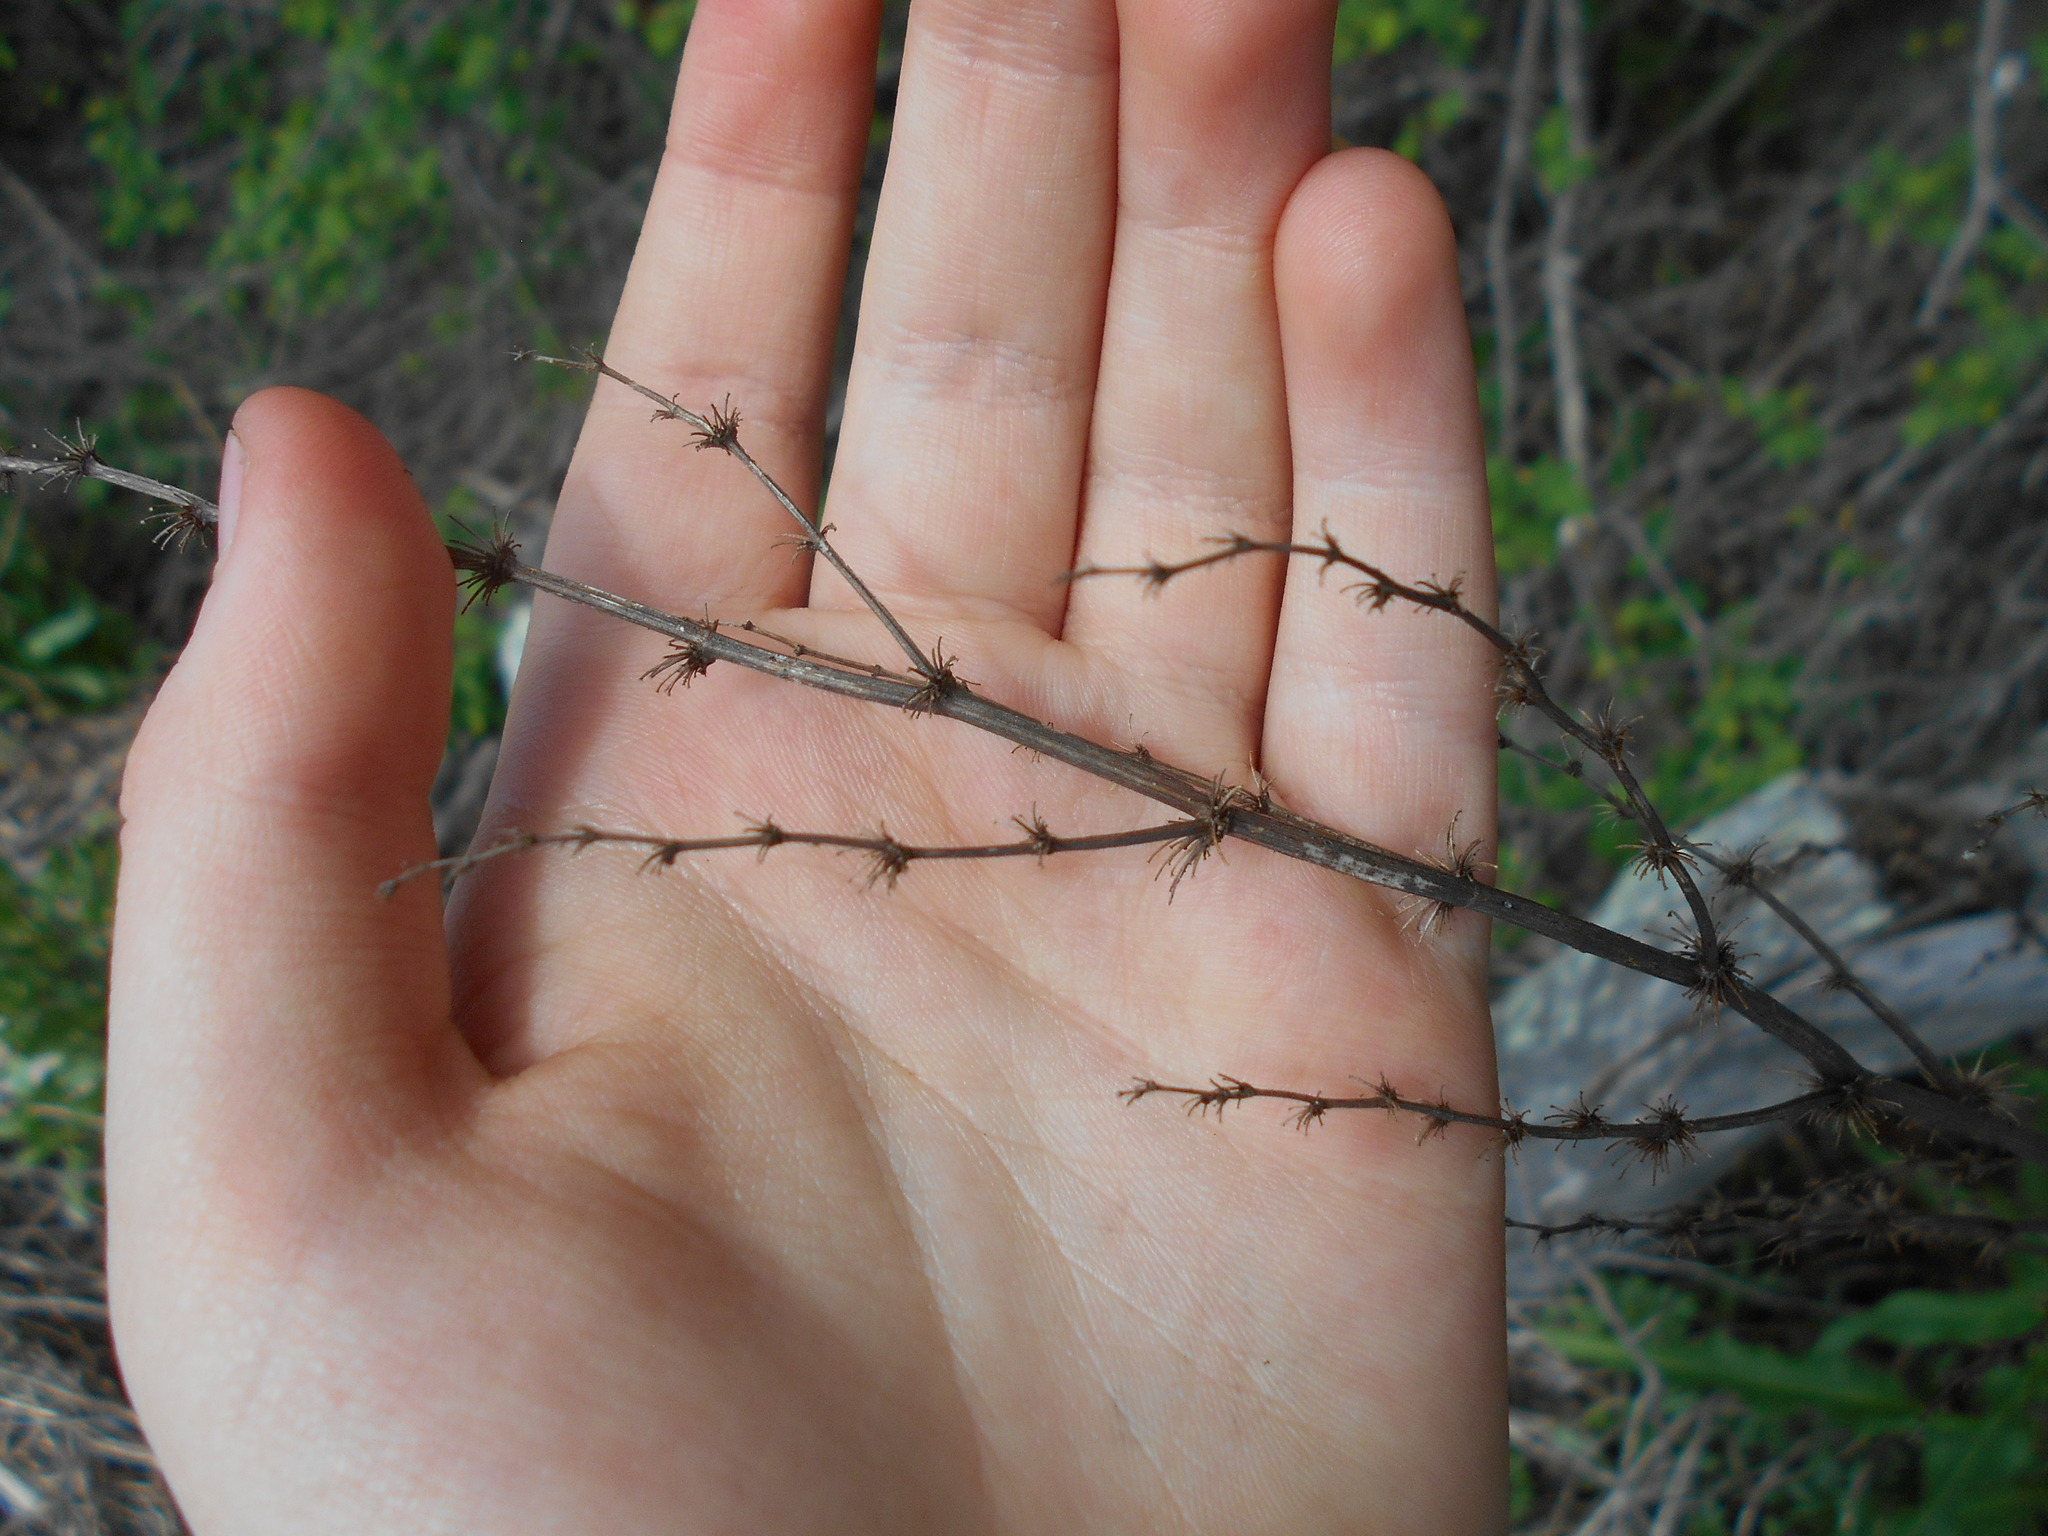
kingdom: Plantae
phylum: Tracheophyta
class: Magnoliopsida
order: Caryophyllales
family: Polygonaceae
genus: Rumex
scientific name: Rumex crispus
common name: Curled dock
